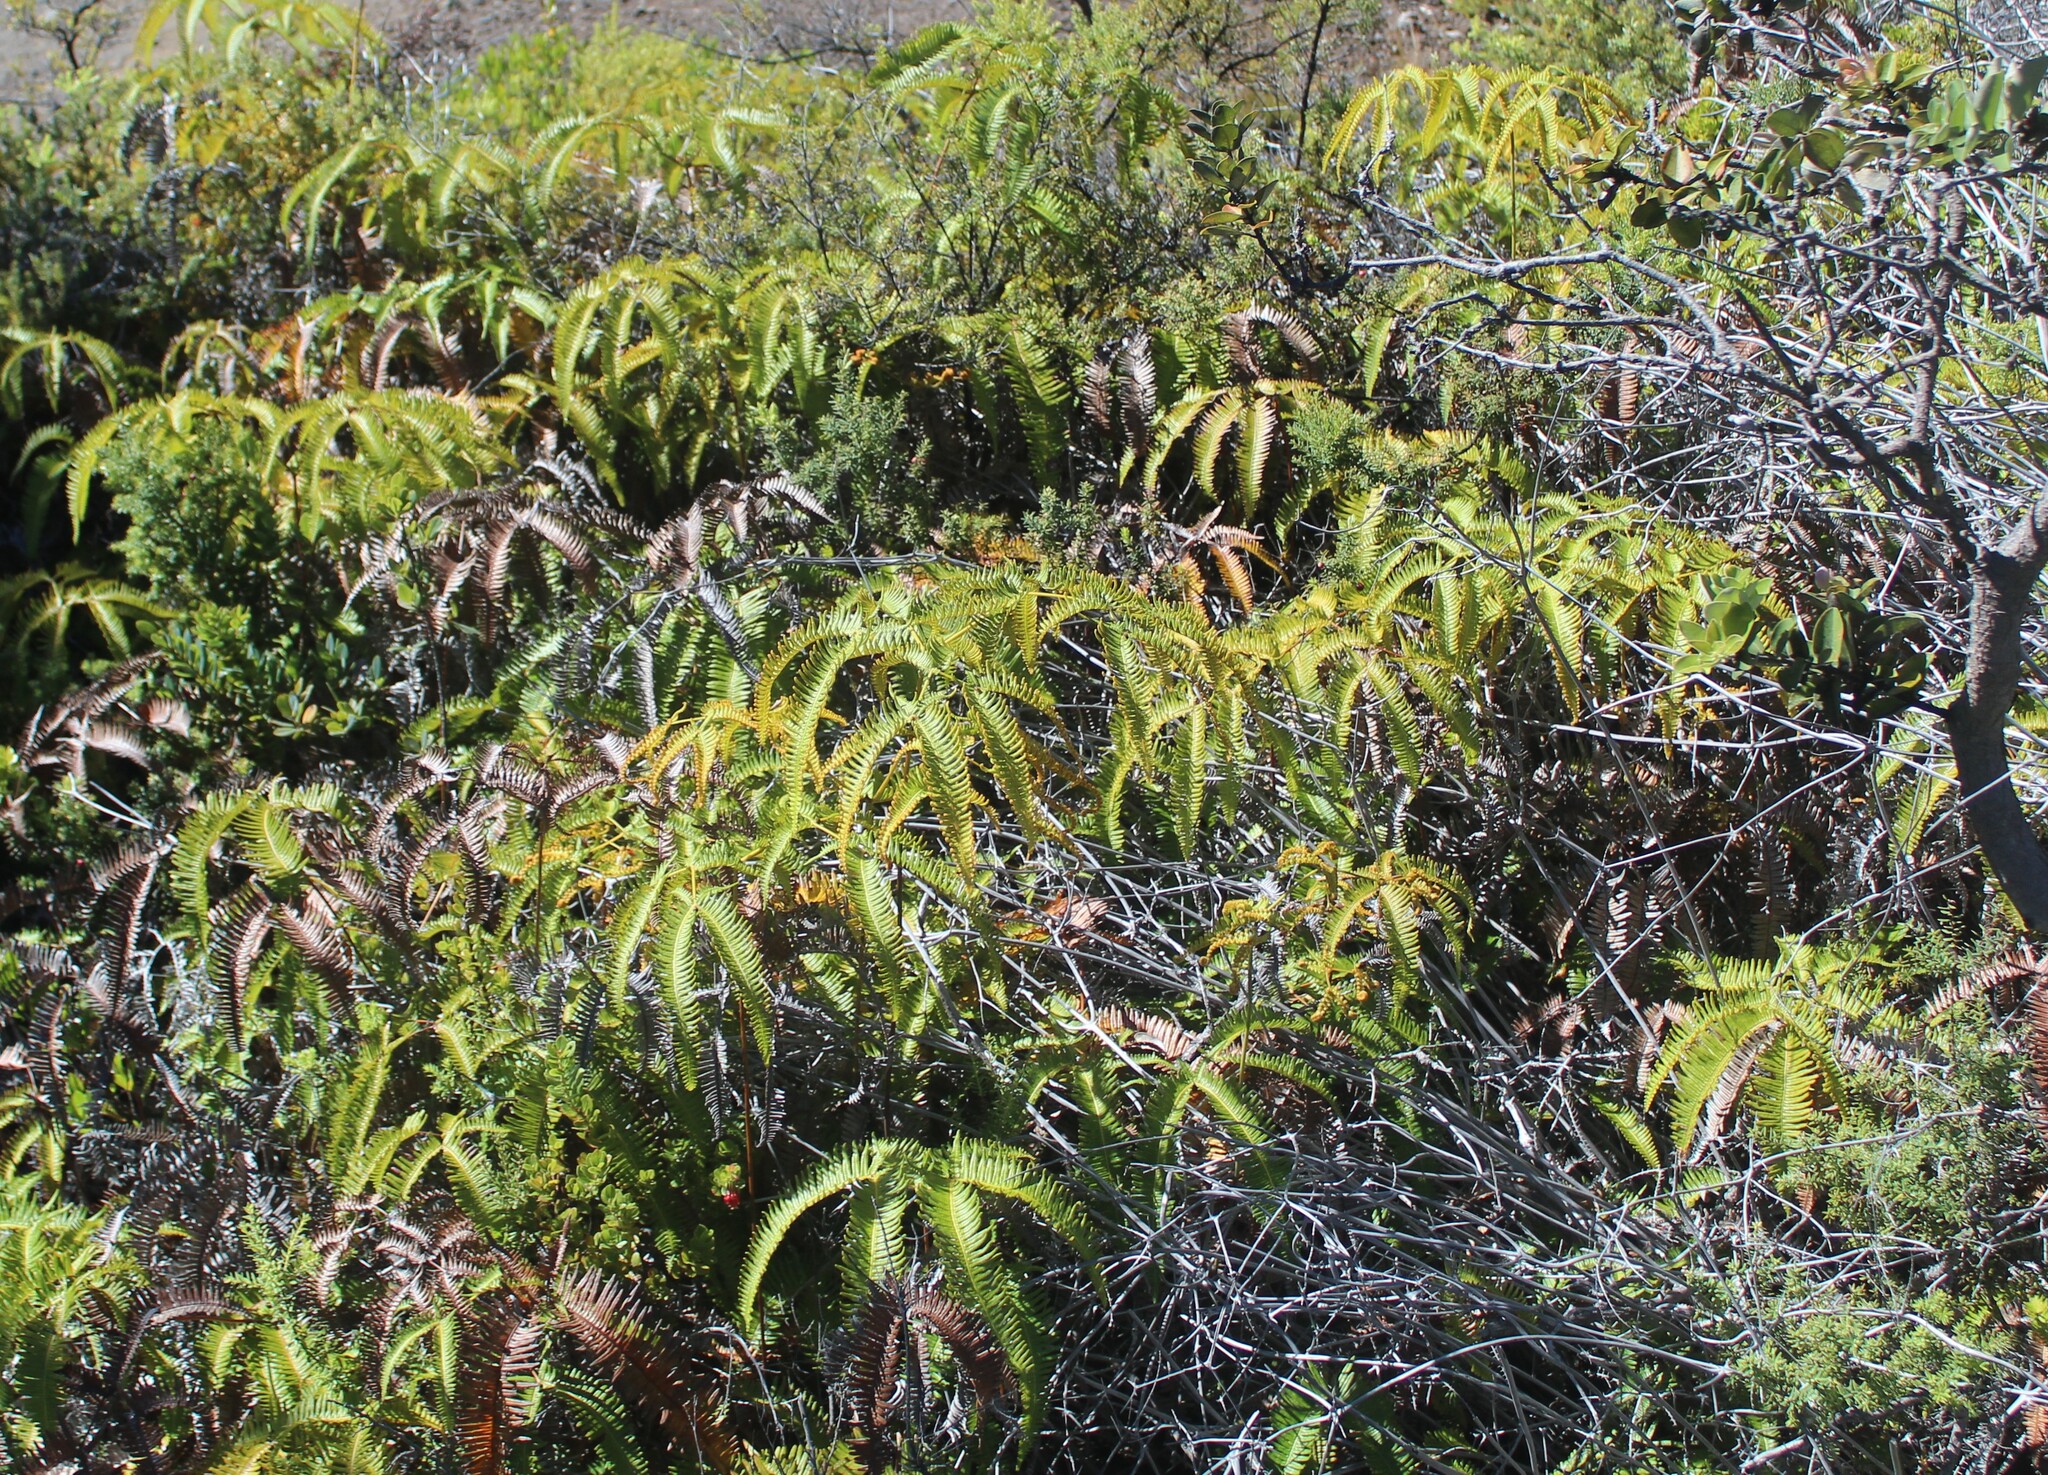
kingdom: Plantae
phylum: Tracheophyta
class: Polypodiopsida
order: Gleicheniales
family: Gleicheniaceae
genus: Dicranopteris
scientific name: Dicranopteris linearis
